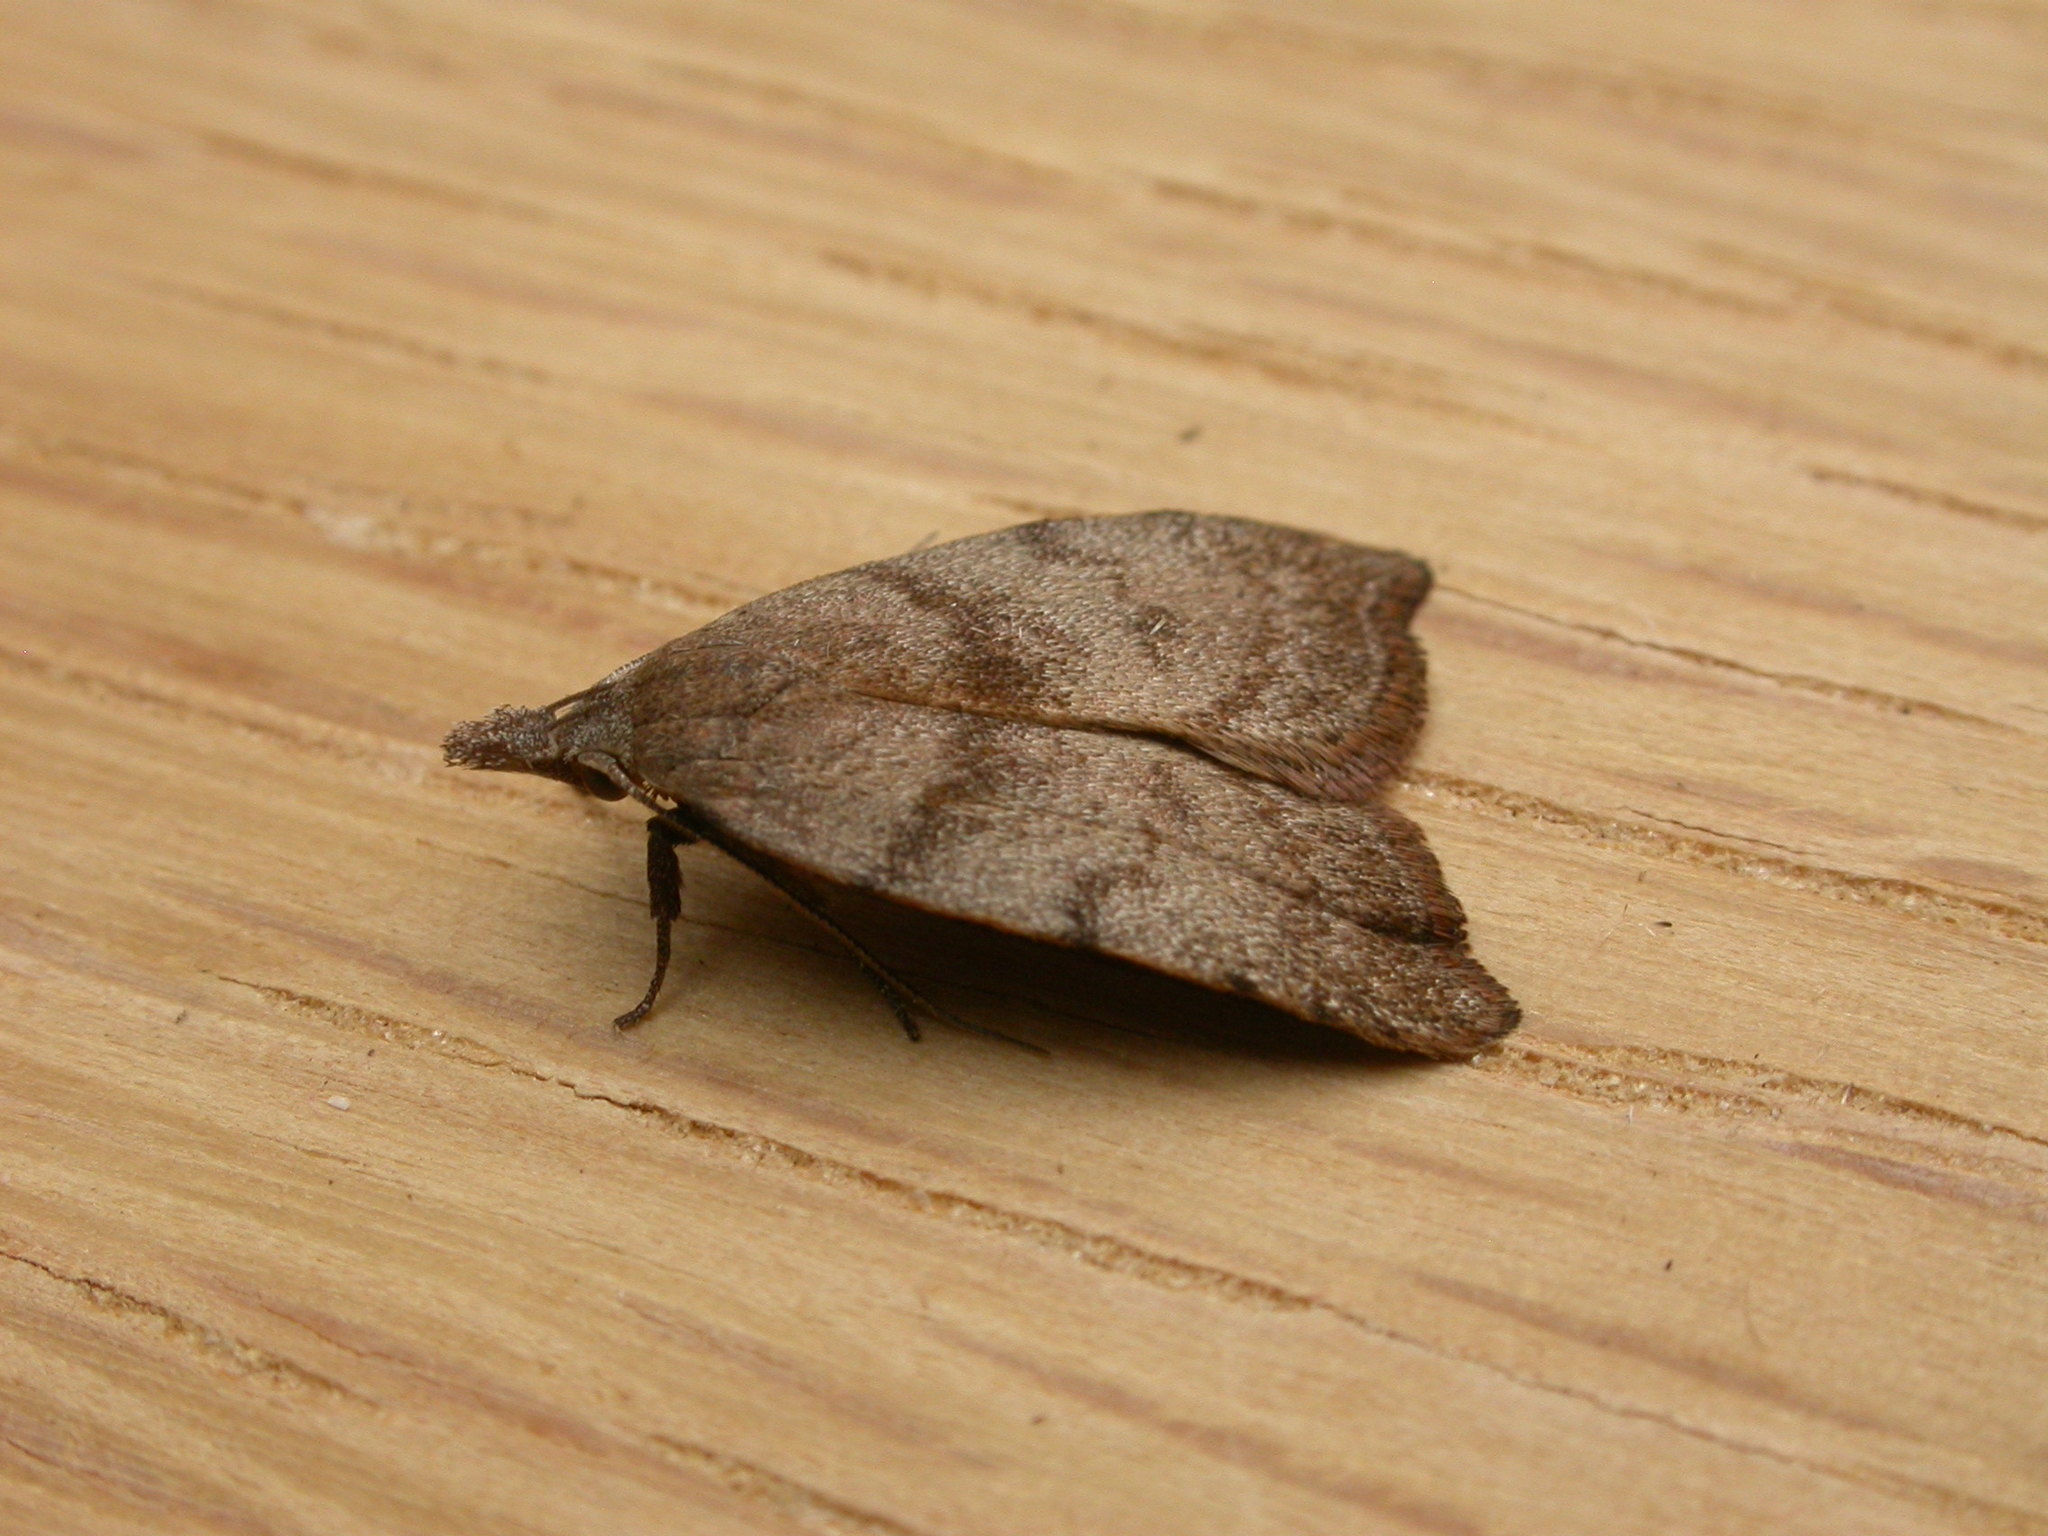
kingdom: Animalia
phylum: Arthropoda
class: Insecta
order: Lepidoptera
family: Oecophoridae
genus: Tortricopsis
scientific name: Tortricopsis euryphanella
